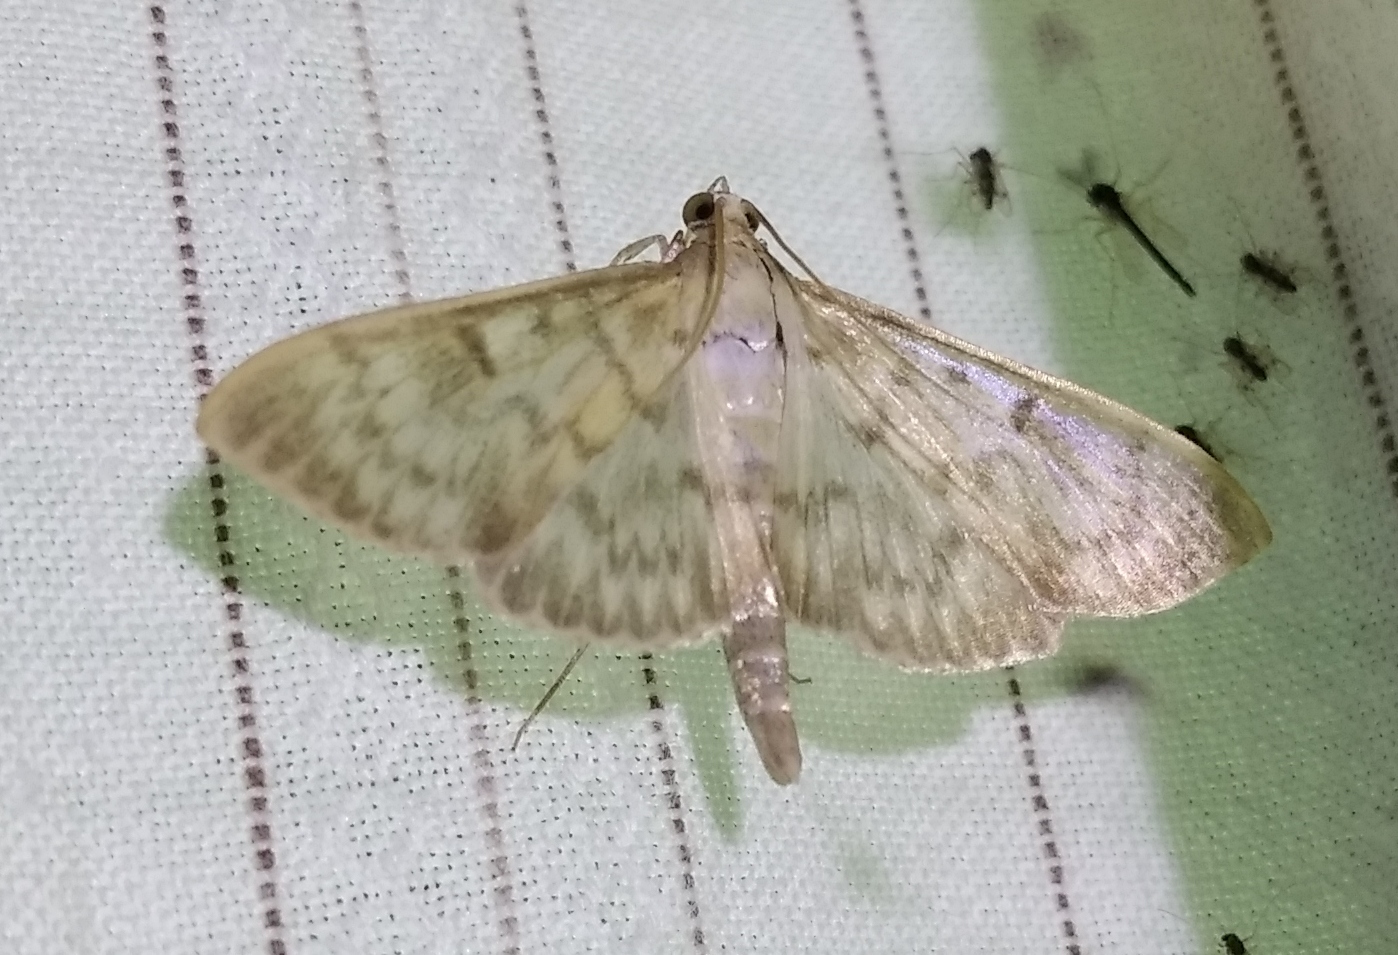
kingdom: Animalia
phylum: Arthropoda
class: Insecta
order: Lepidoptera
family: Crambidae
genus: Patania
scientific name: Patania ruralis
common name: Mother of pearl
